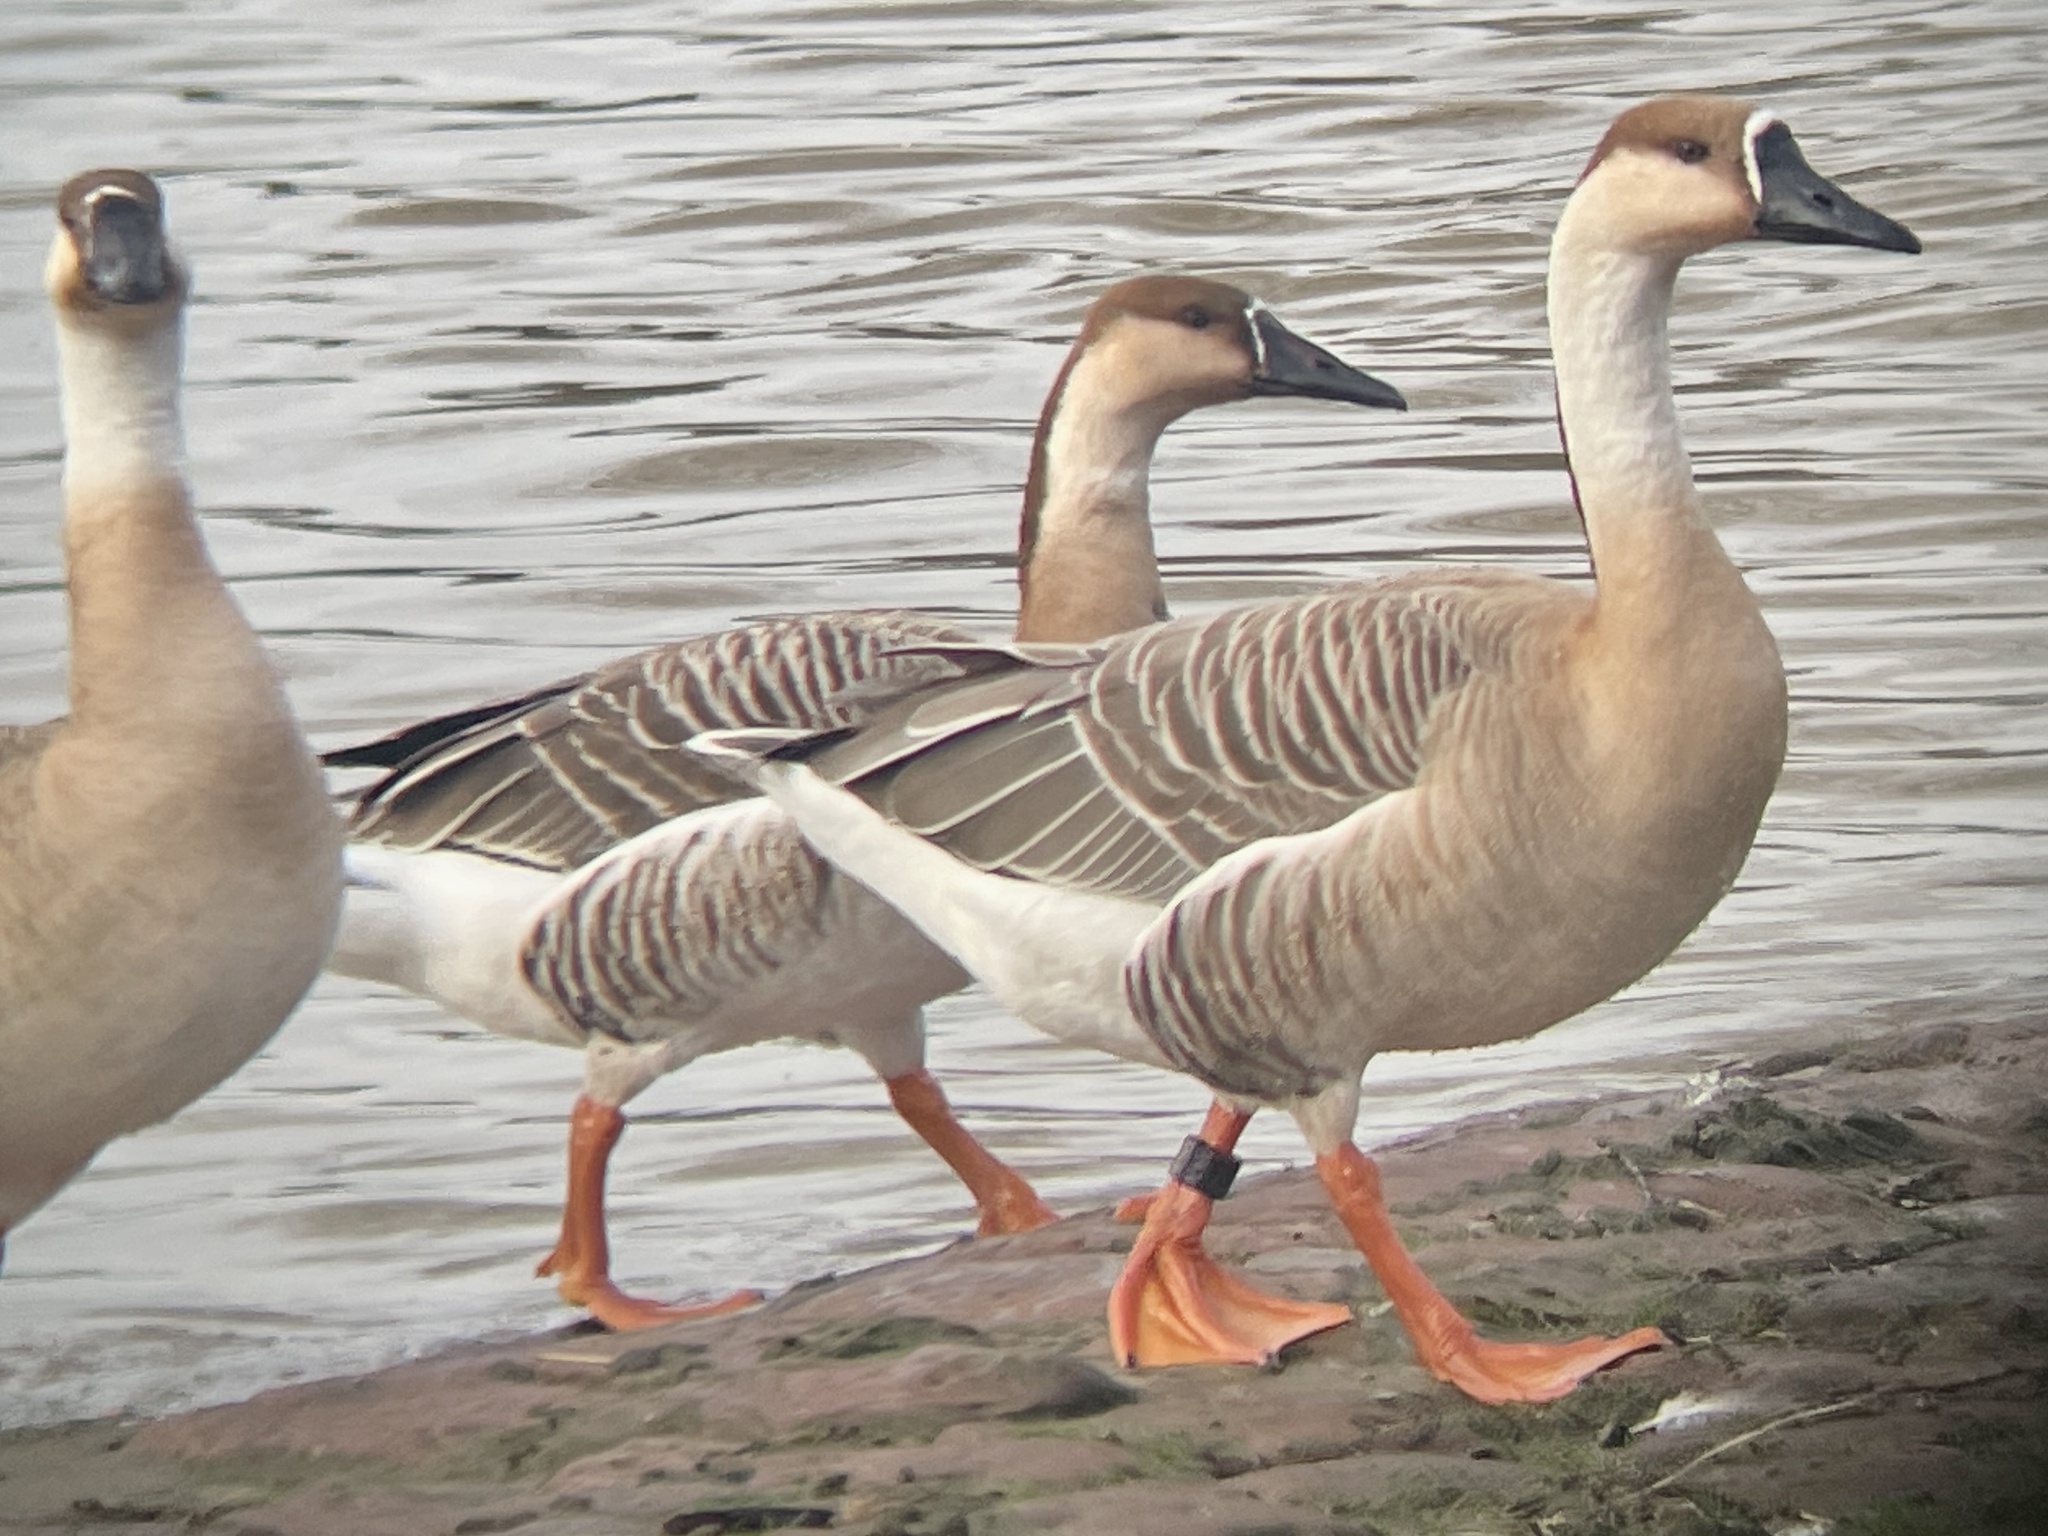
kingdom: Animalia
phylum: Chordata
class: Aves
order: Anseriformes
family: Anatidae
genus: Anser
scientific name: Anser cygnoides
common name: Swan goose
